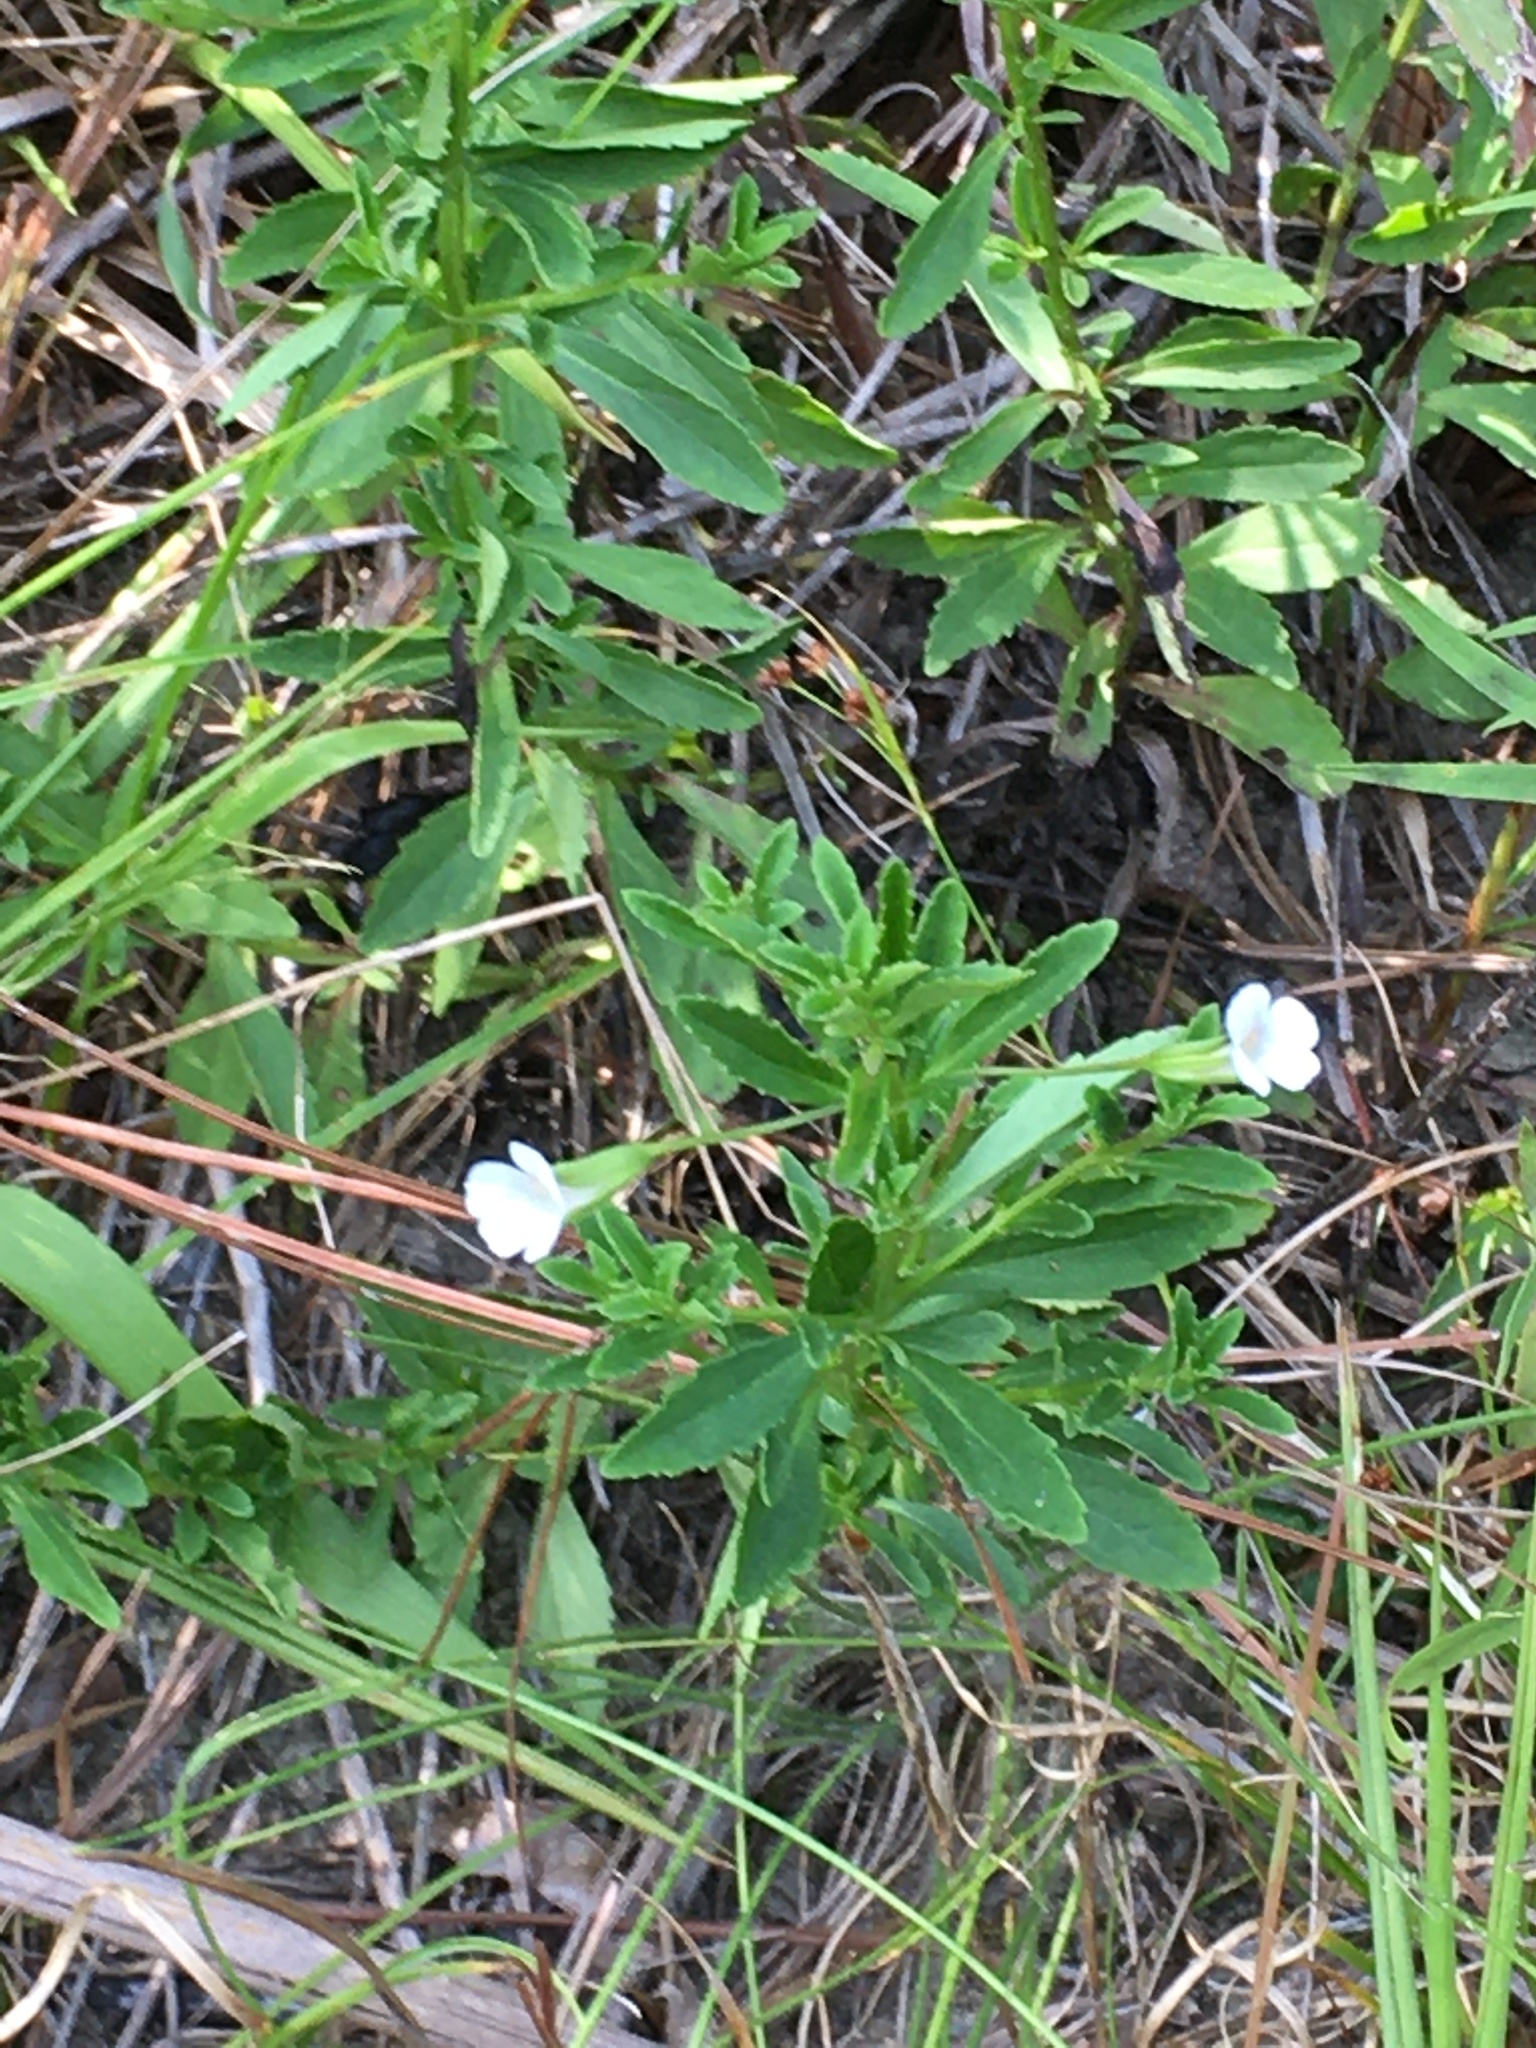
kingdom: Plantae
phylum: Tracheophyta
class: Magnoliopsida
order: Lamiales
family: Plantaginaceae
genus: Mecardonia
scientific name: Mecardonia acuminata
